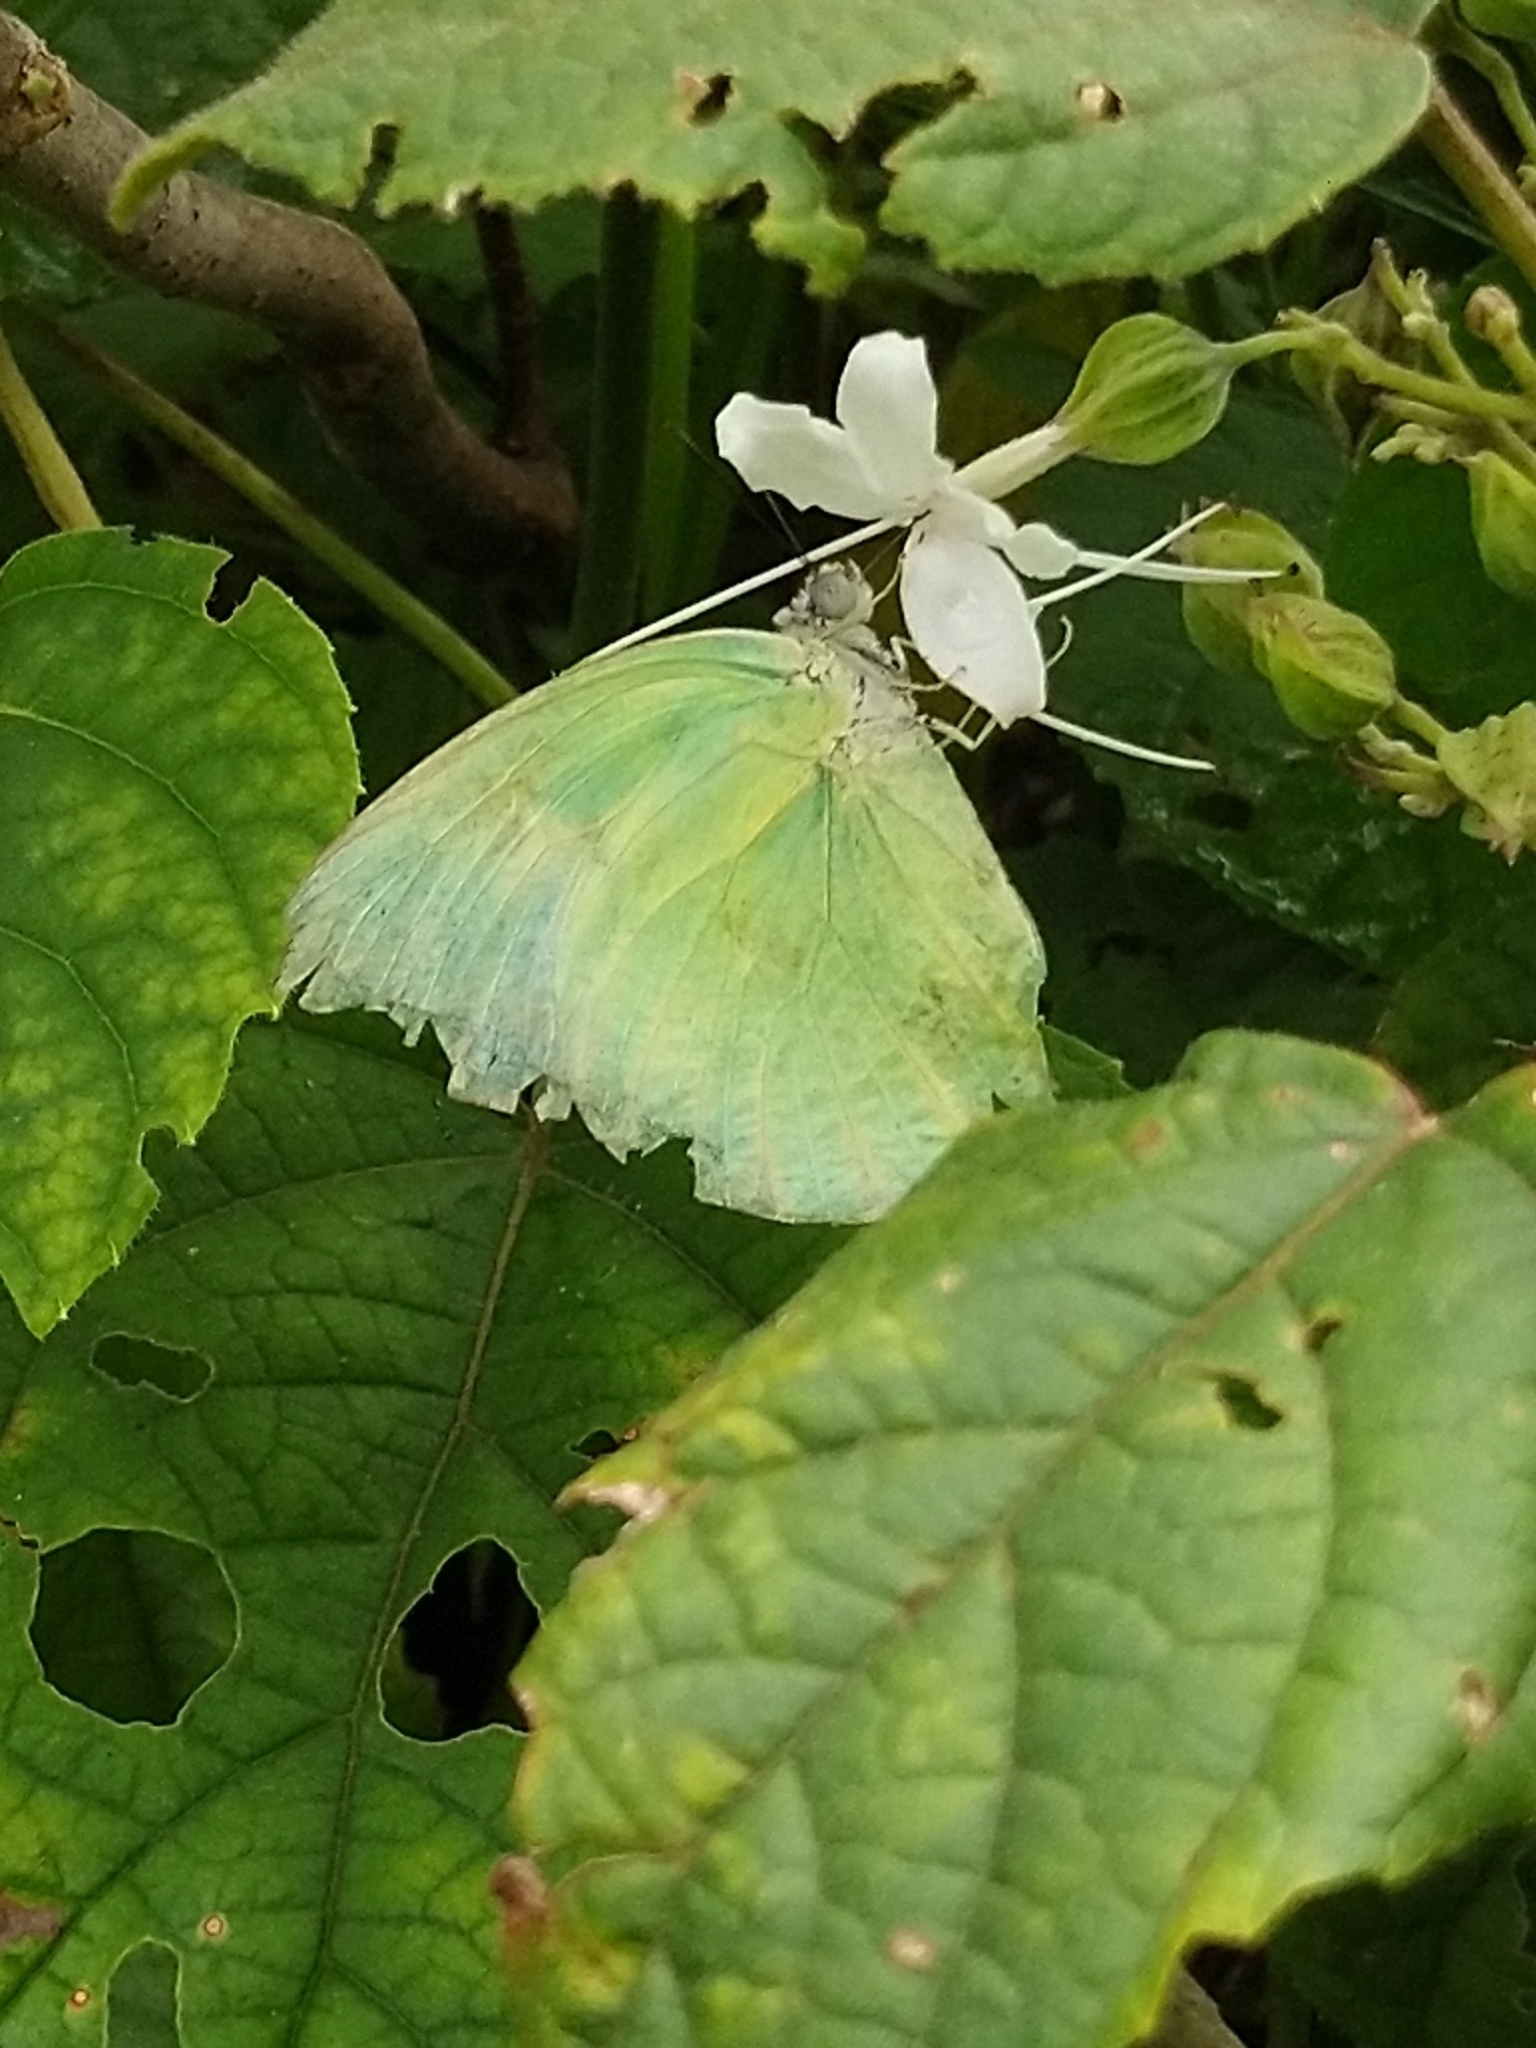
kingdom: Animalia
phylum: Arthropoda
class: Insecta
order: Lepidoptera
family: Pieridae
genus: Catopsilia
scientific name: Catopsilia pomona
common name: Common emigrant
